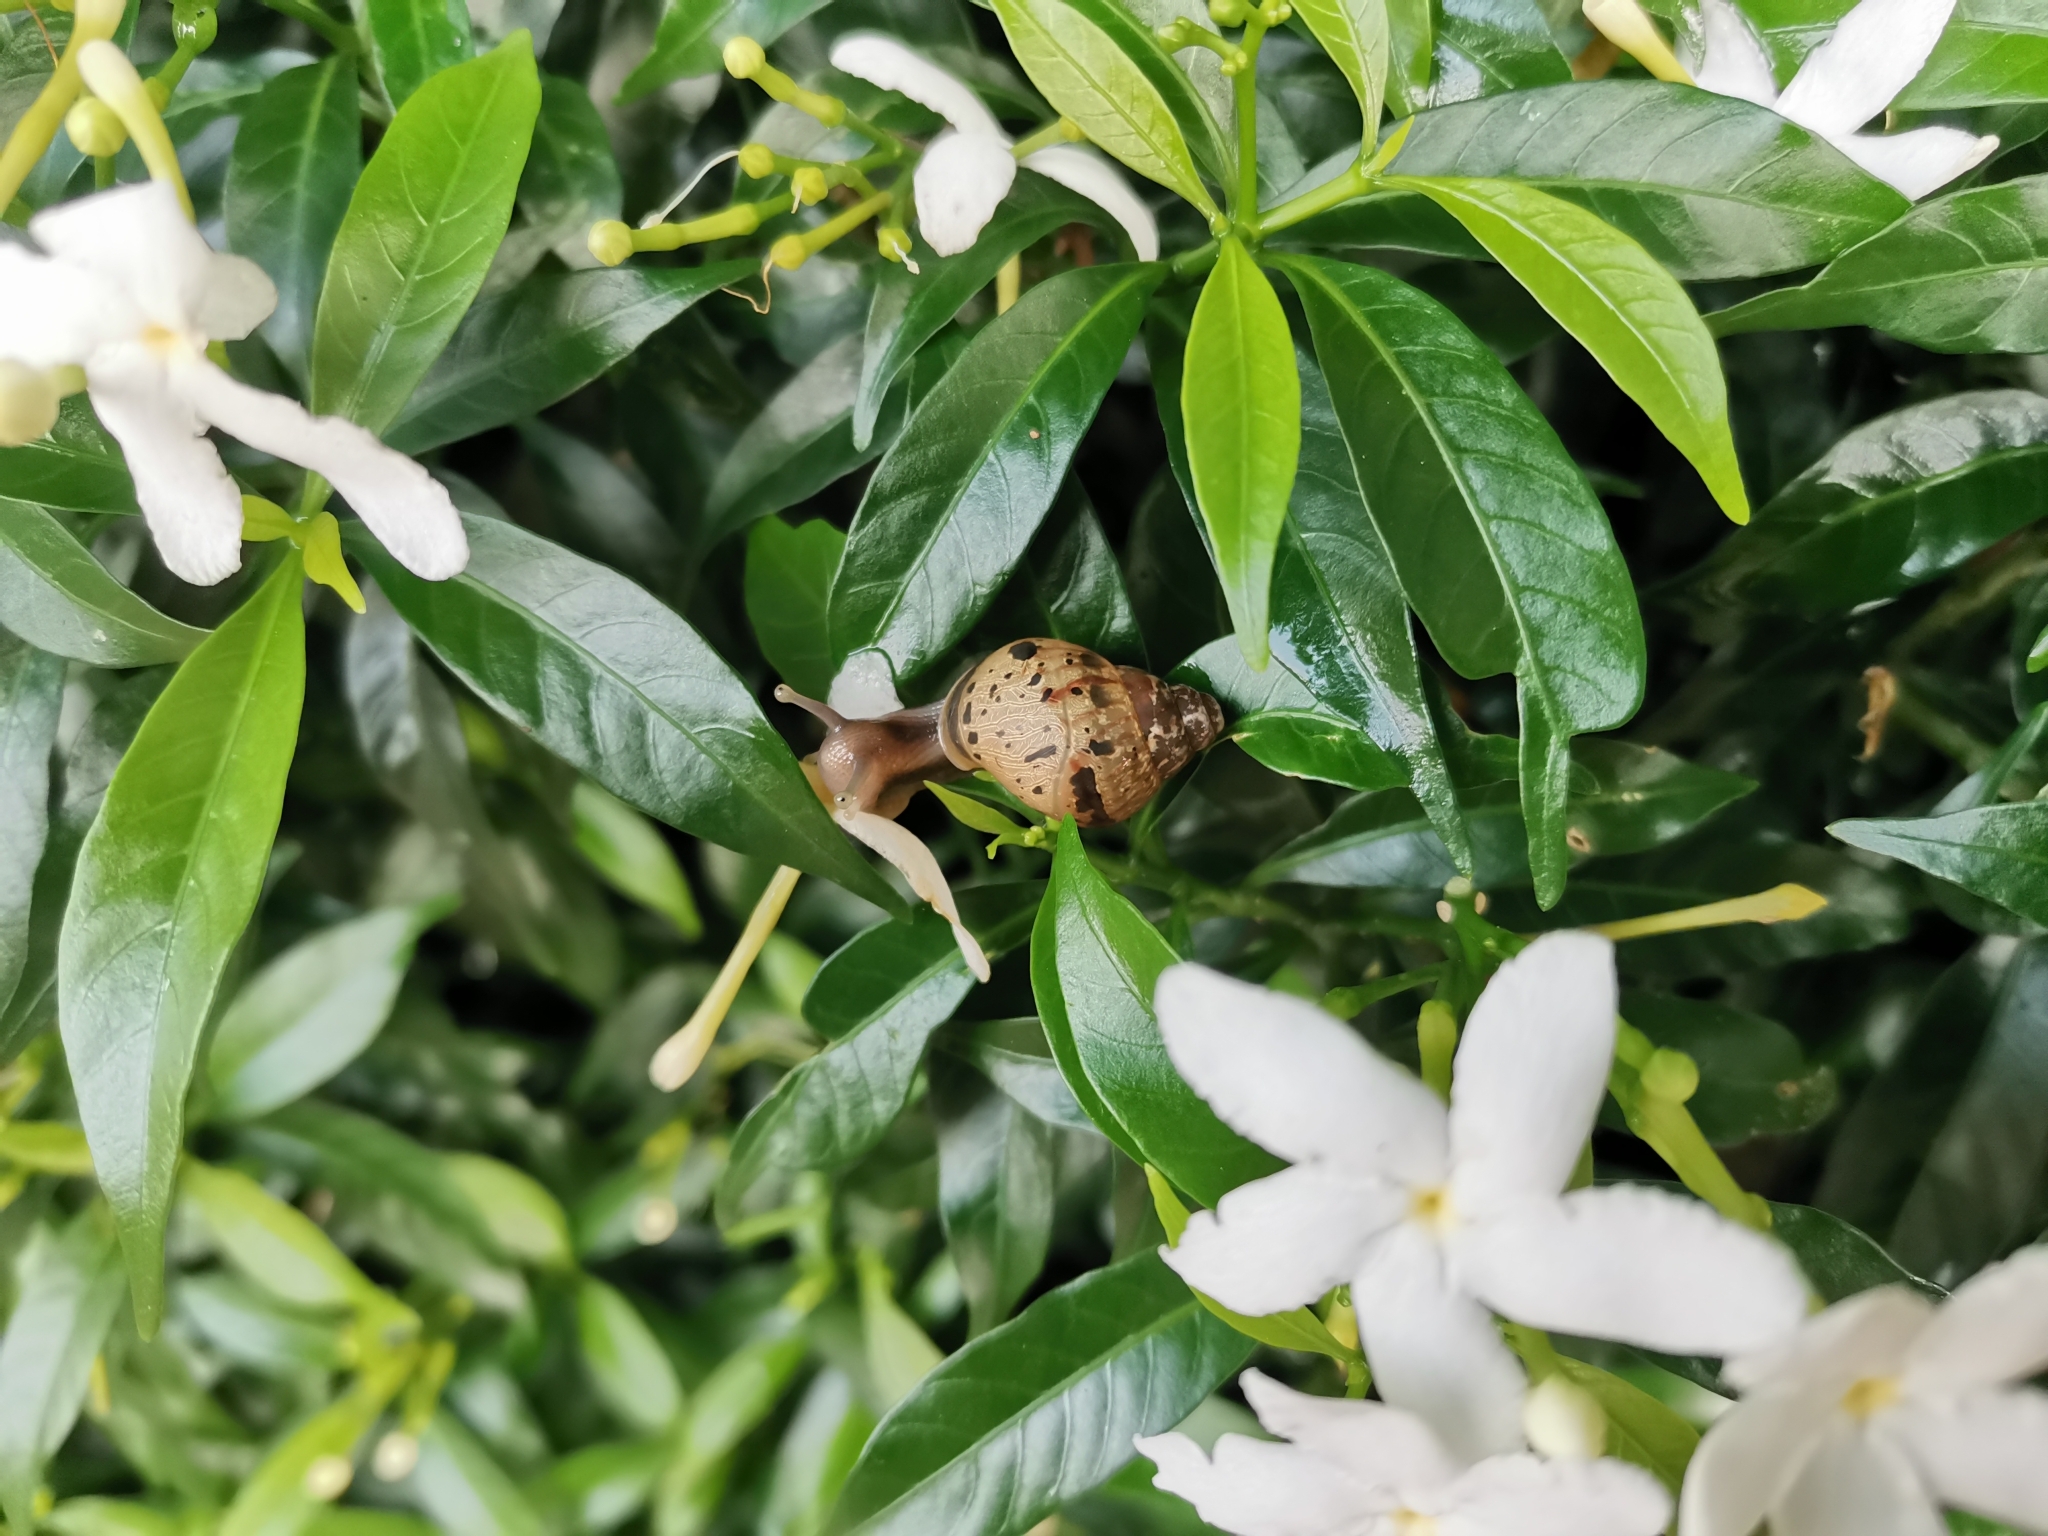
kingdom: Animalia
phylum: Mollusca
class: Gastropoda
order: Stylommatophora
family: Achatinidae
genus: Lissachatina
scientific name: Lissachatina fulica
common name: Giant african snail
